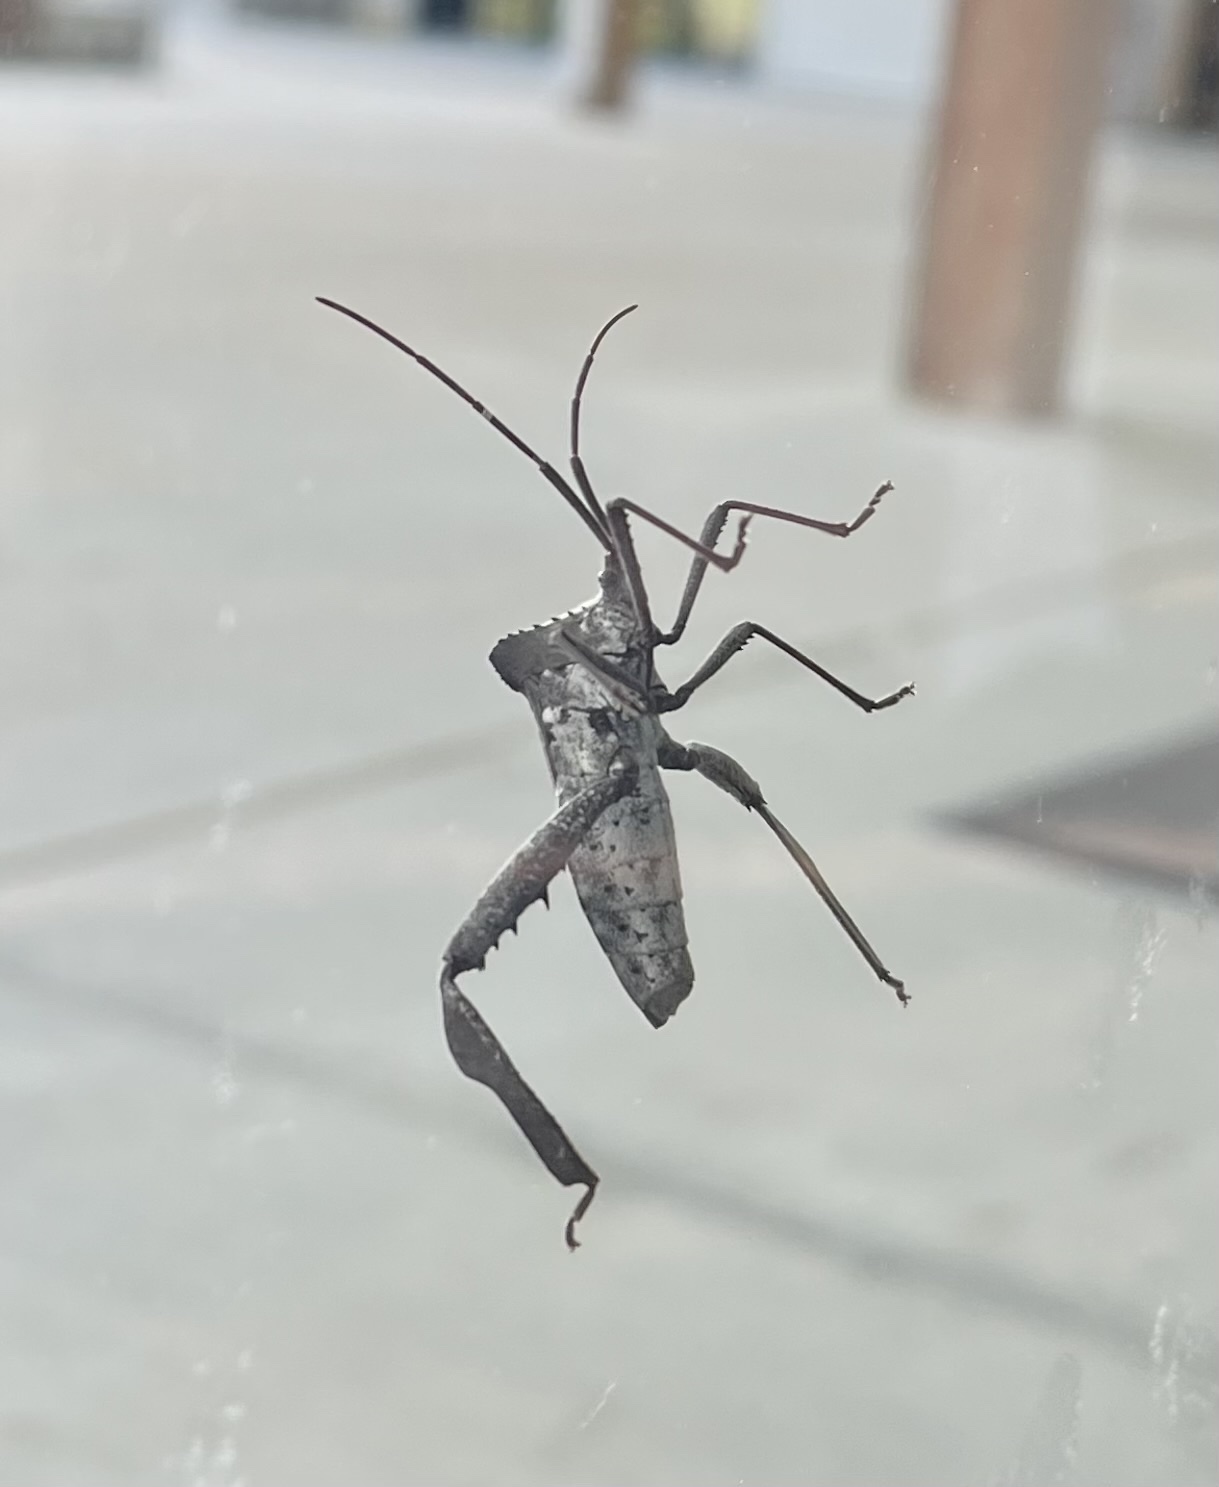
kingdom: Animalia
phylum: Arthropoda
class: Insecta
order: Hemiptera
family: Coreidae
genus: Acanthocephala
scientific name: Acanthocephala declivis
